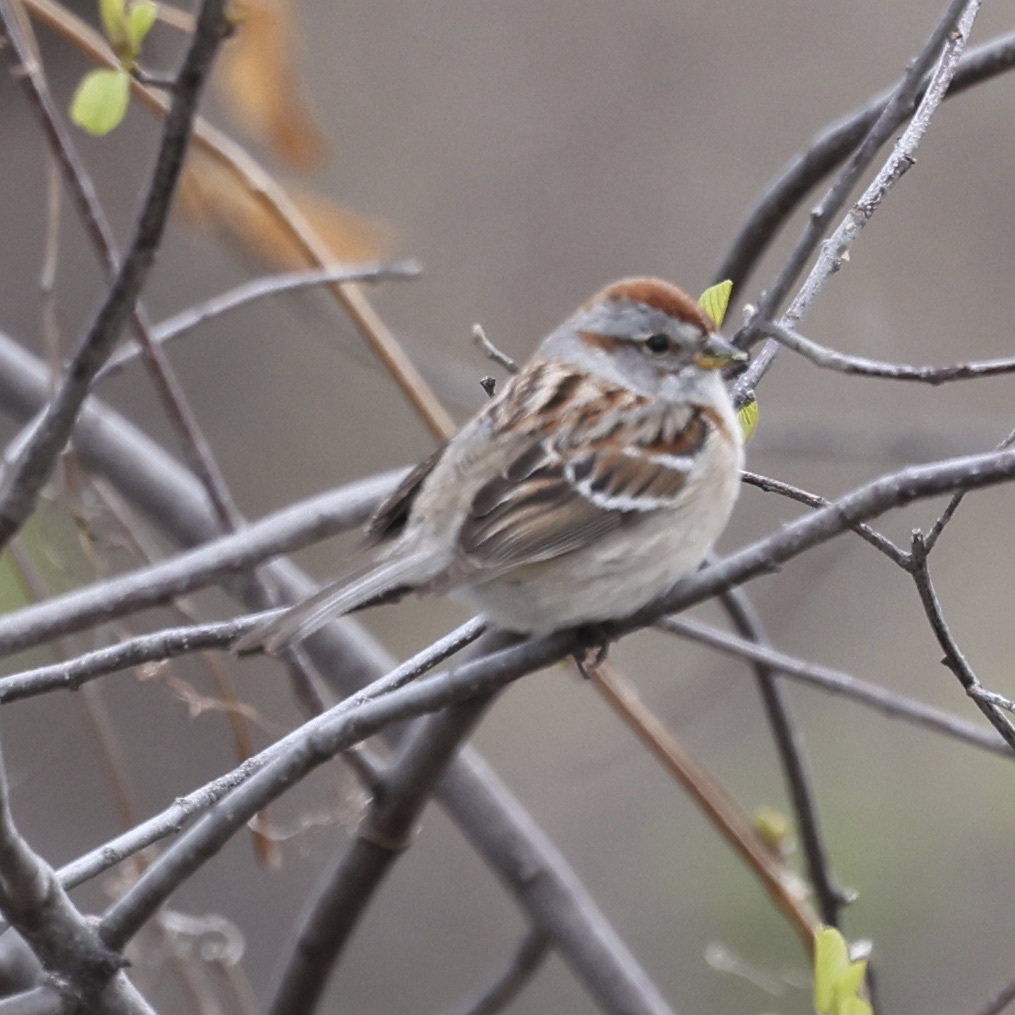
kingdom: Animalia
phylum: Chordata
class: Aves
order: Passeriformes
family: Passerellidae
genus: Spizelloides
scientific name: Spizelloides arborea
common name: American tree sparrow
